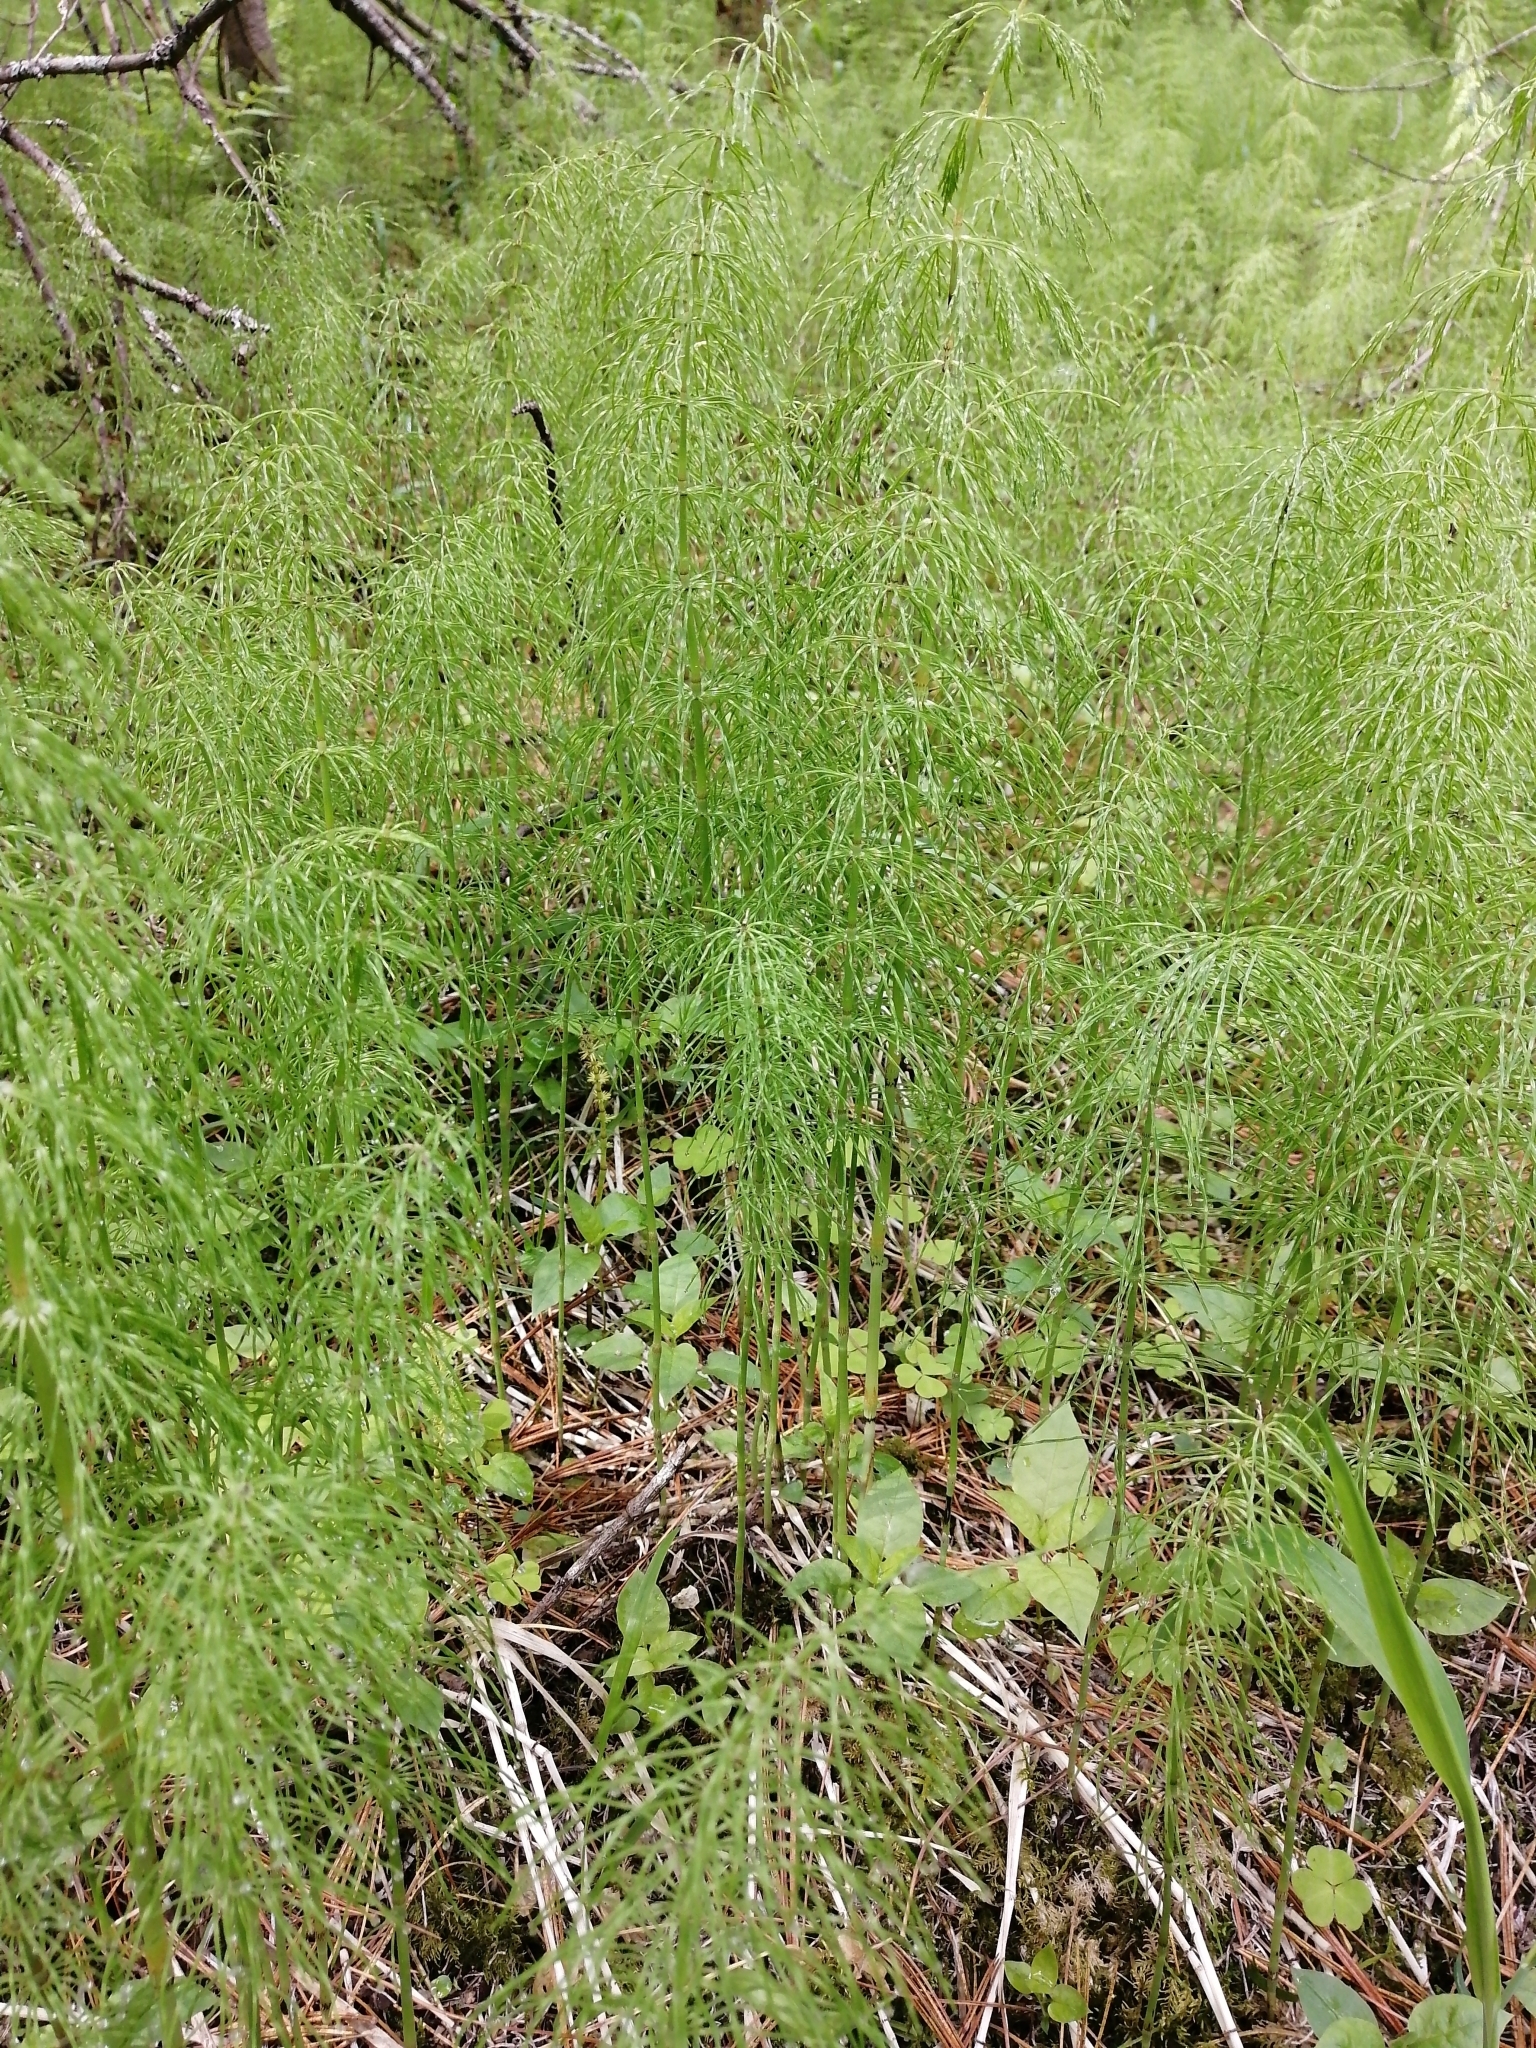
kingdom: Plantae
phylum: Tracheophyta
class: Polypodiopsida
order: Equisetales
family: Equisetaceae
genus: Equisetum
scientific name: Equisetum pratense
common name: Meadow horsetail
